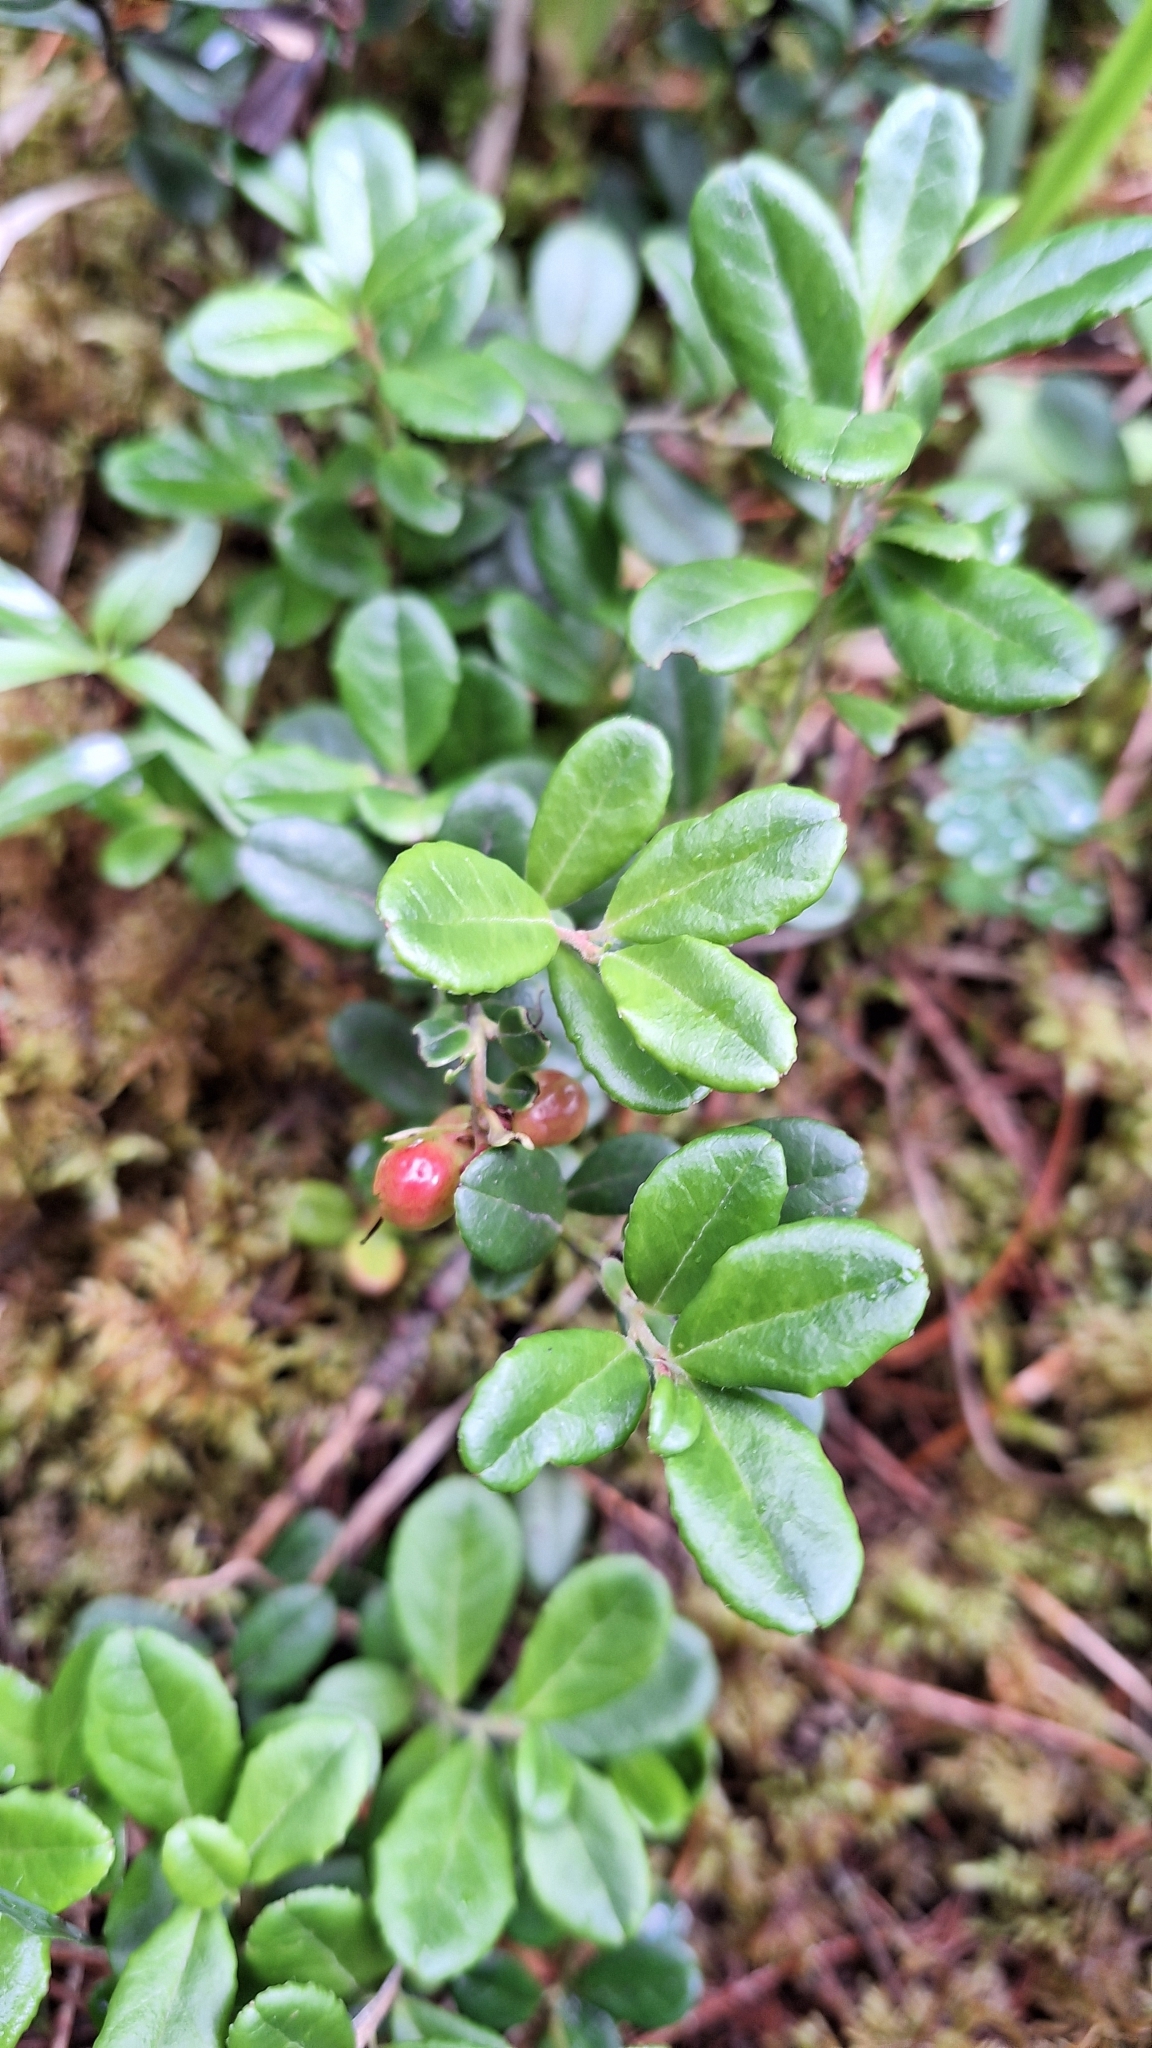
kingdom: Plantae
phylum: Tracheophyta
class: Magnoliopsida
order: Ericales
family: Ericaceae
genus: Vaccinium
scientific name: Vaccinium vitis-idaea
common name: Cowberry
